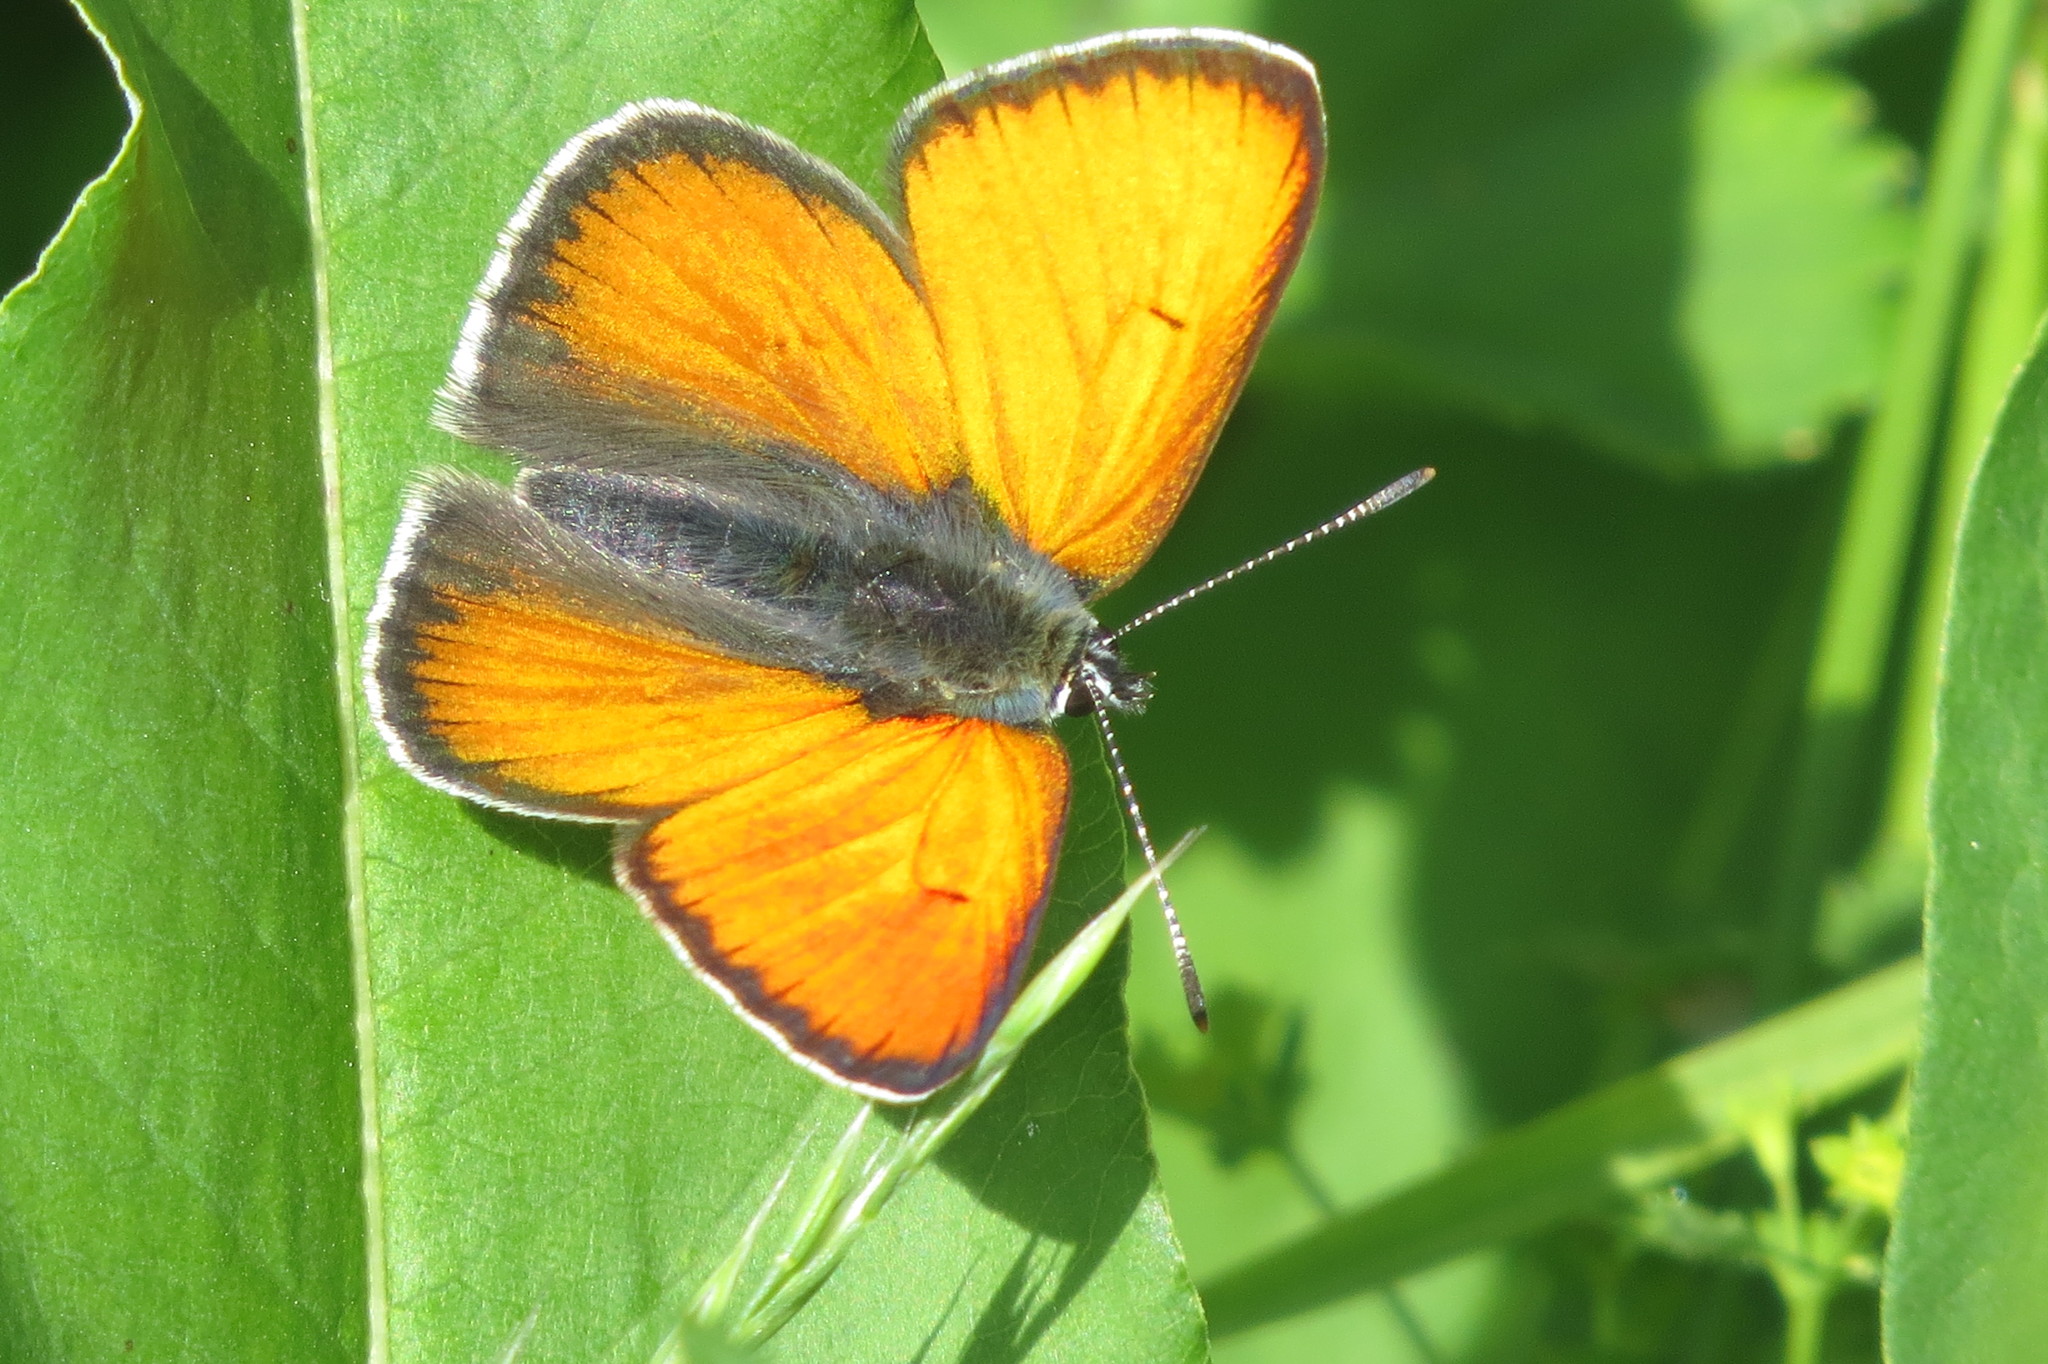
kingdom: Animalia
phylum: Arthropoda
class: Insecta
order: Lepidoptera
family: Lycaenidae
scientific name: Lycaenidae
